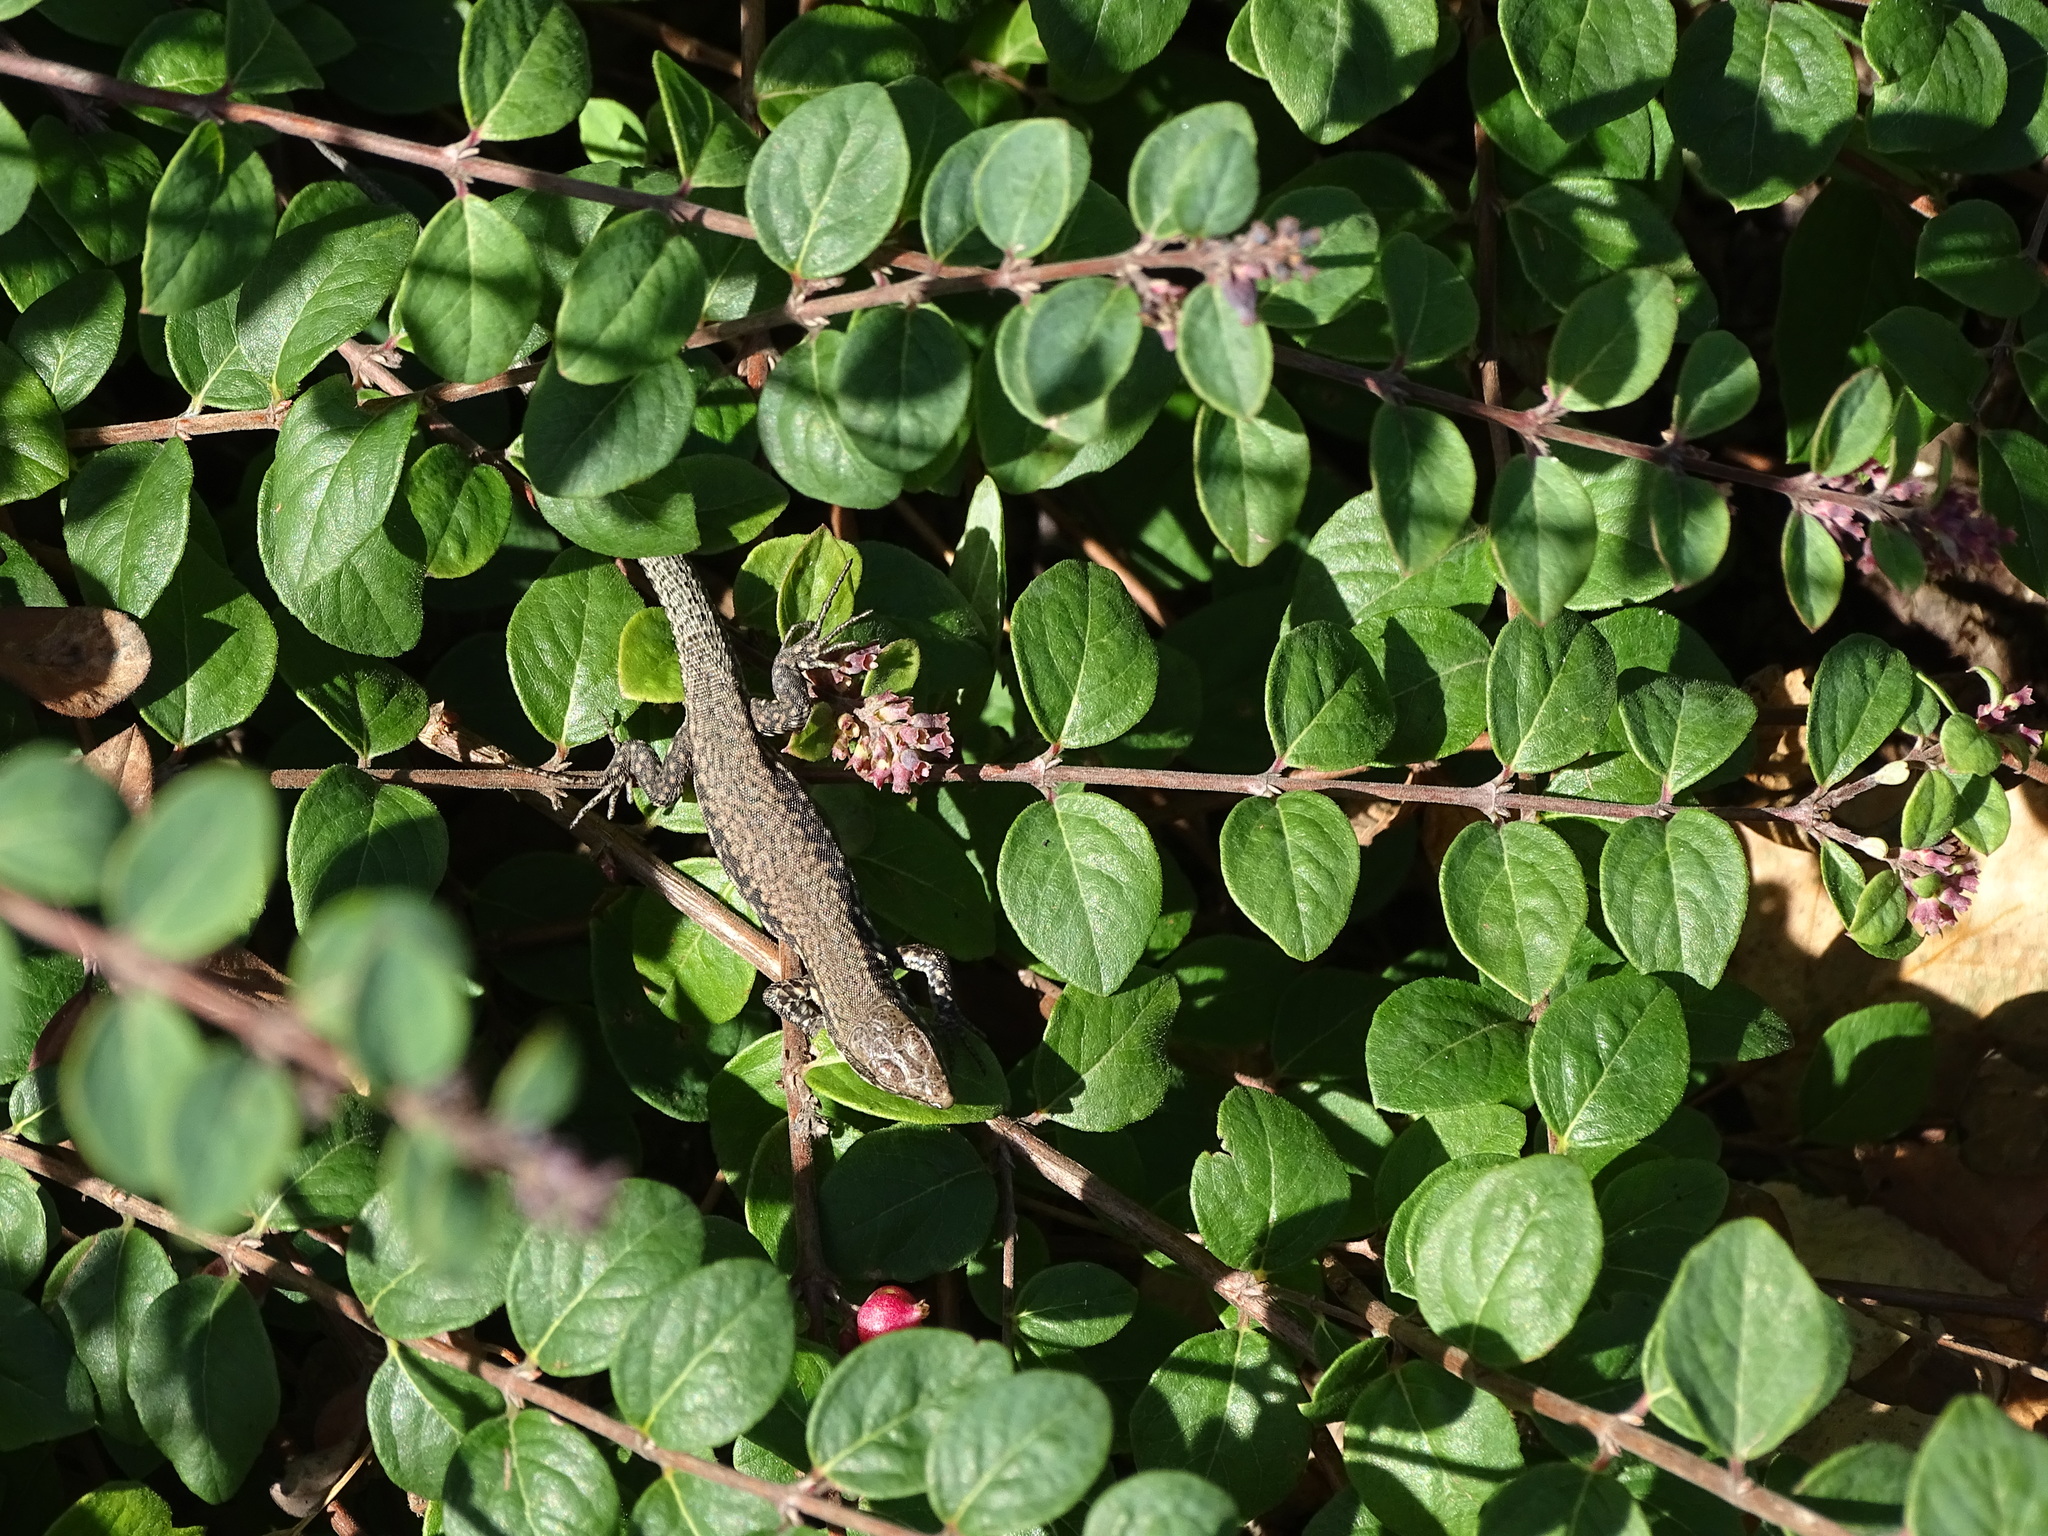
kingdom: Animalia
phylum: Chordata
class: Squamata
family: Lacertidae
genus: Podarcis
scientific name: Podarcis muralis
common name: Common wall lizard
